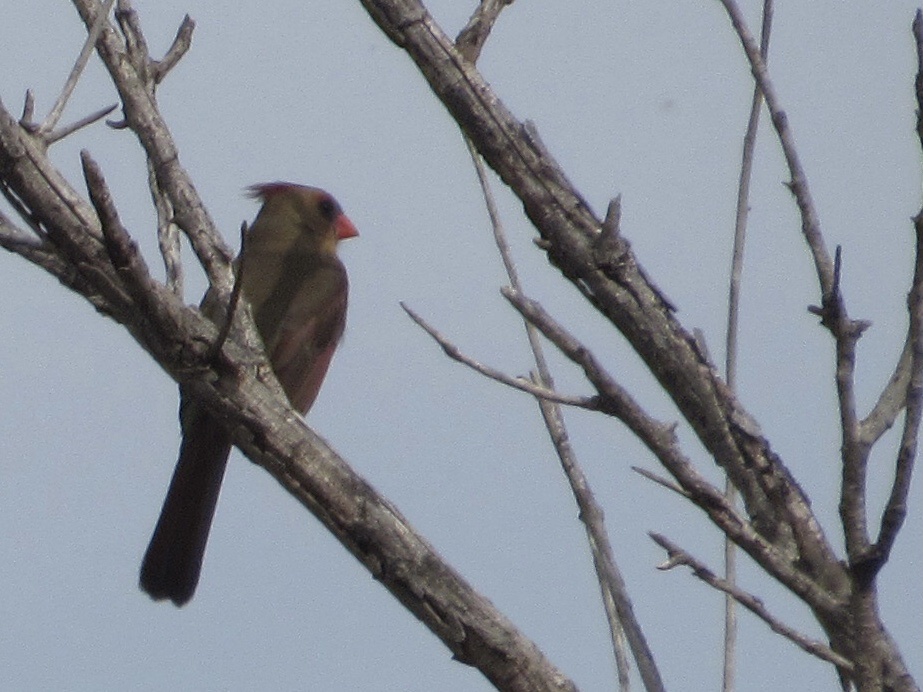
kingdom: Animalia
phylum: Chordata
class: Aves
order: Passeriformes
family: Cardinalidae
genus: Cardinalis
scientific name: Cardinalis cardinalis
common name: Northern cardinal
